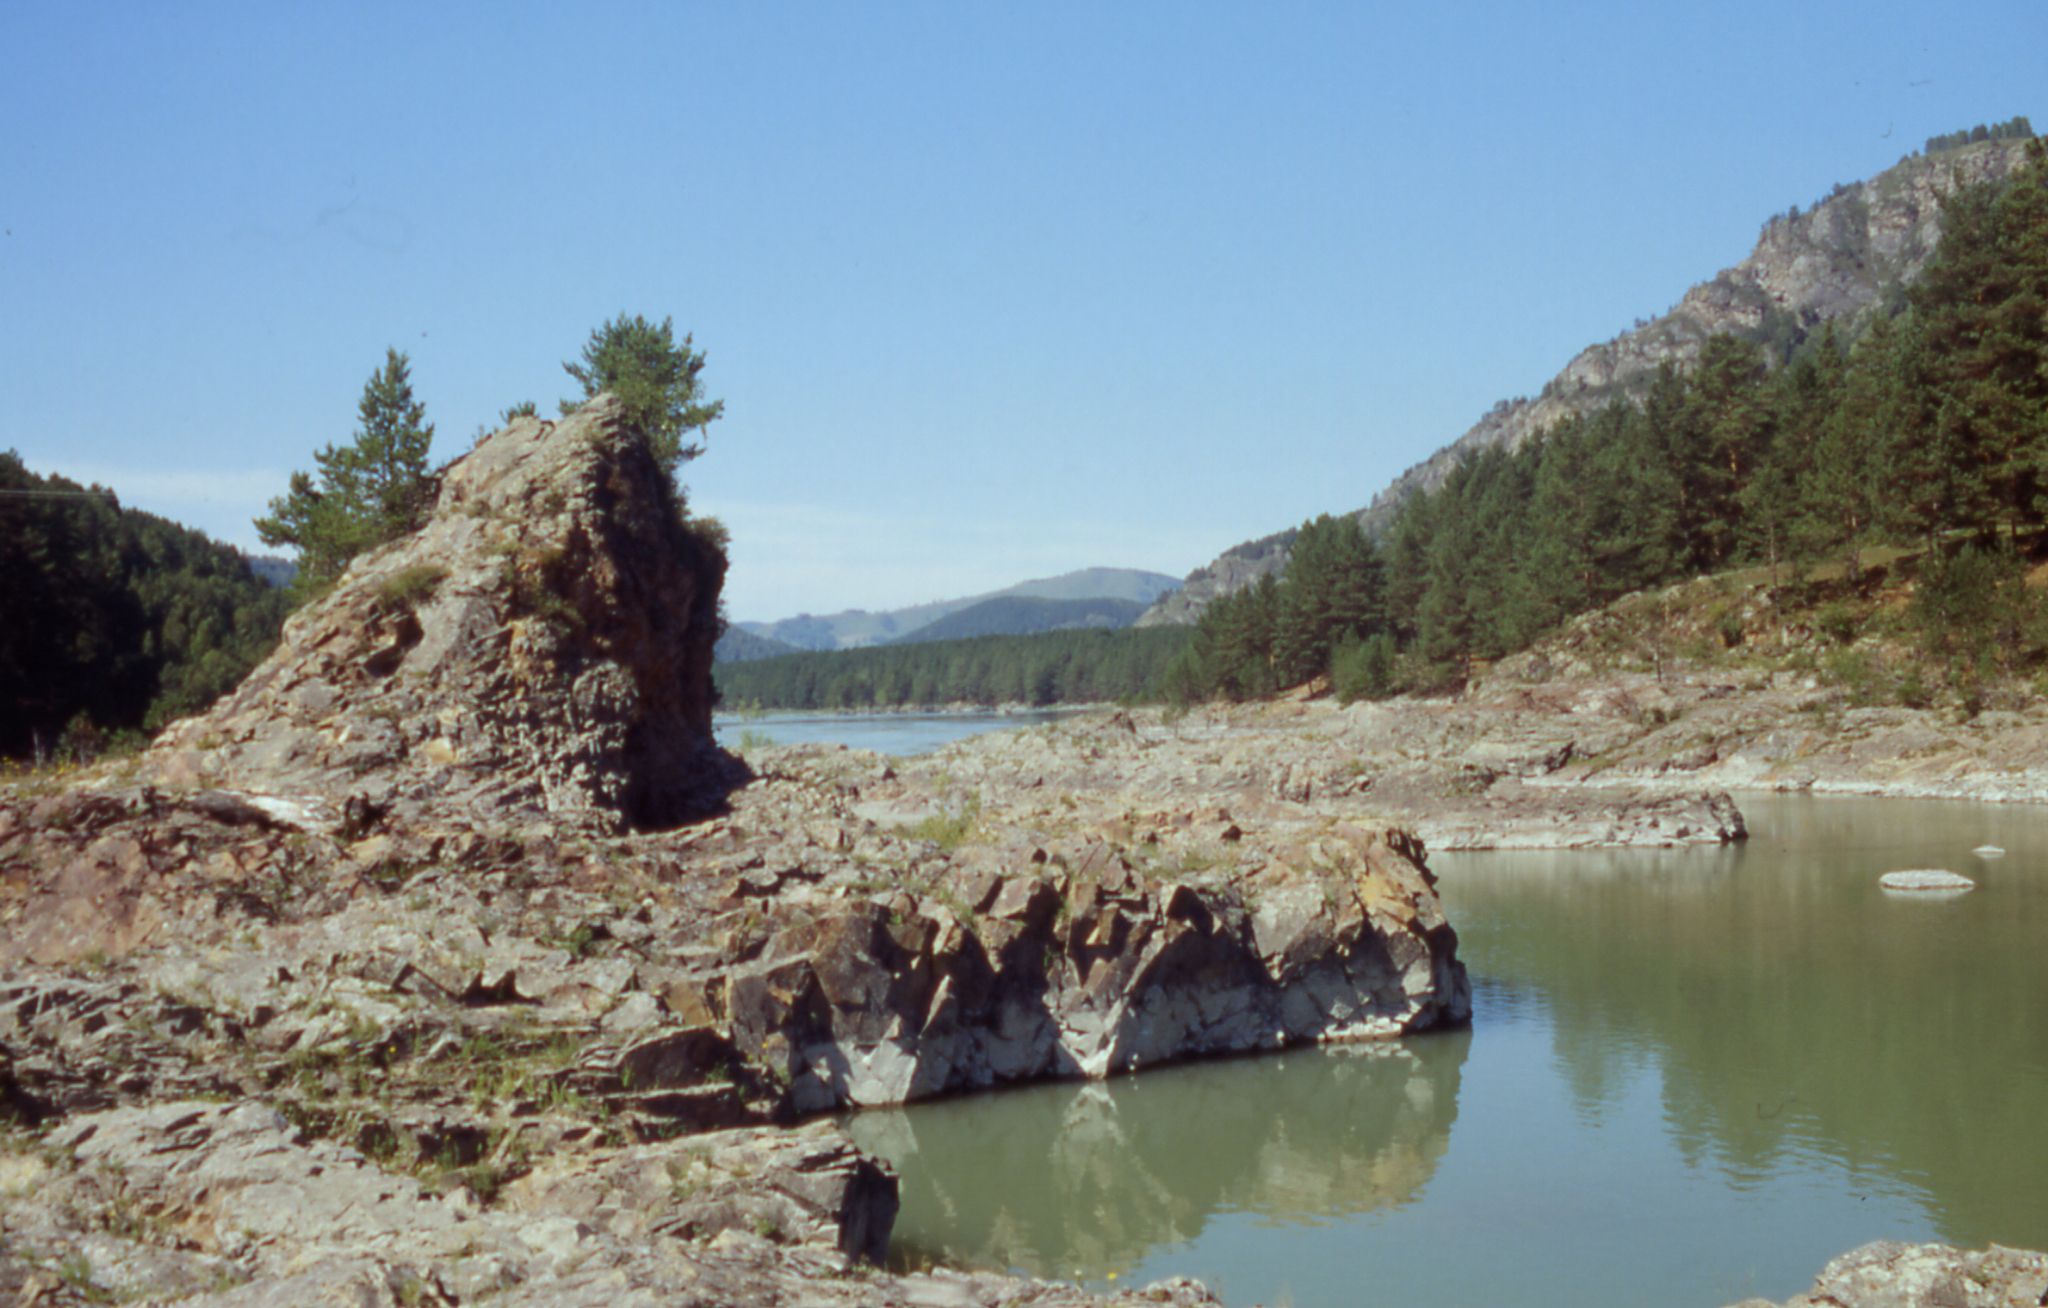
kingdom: Plantae
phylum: Tracheophyta
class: Pinopsida
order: Pinales
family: Pinaceae
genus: Pinus
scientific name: Pinus sylvestris
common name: Scots pine
